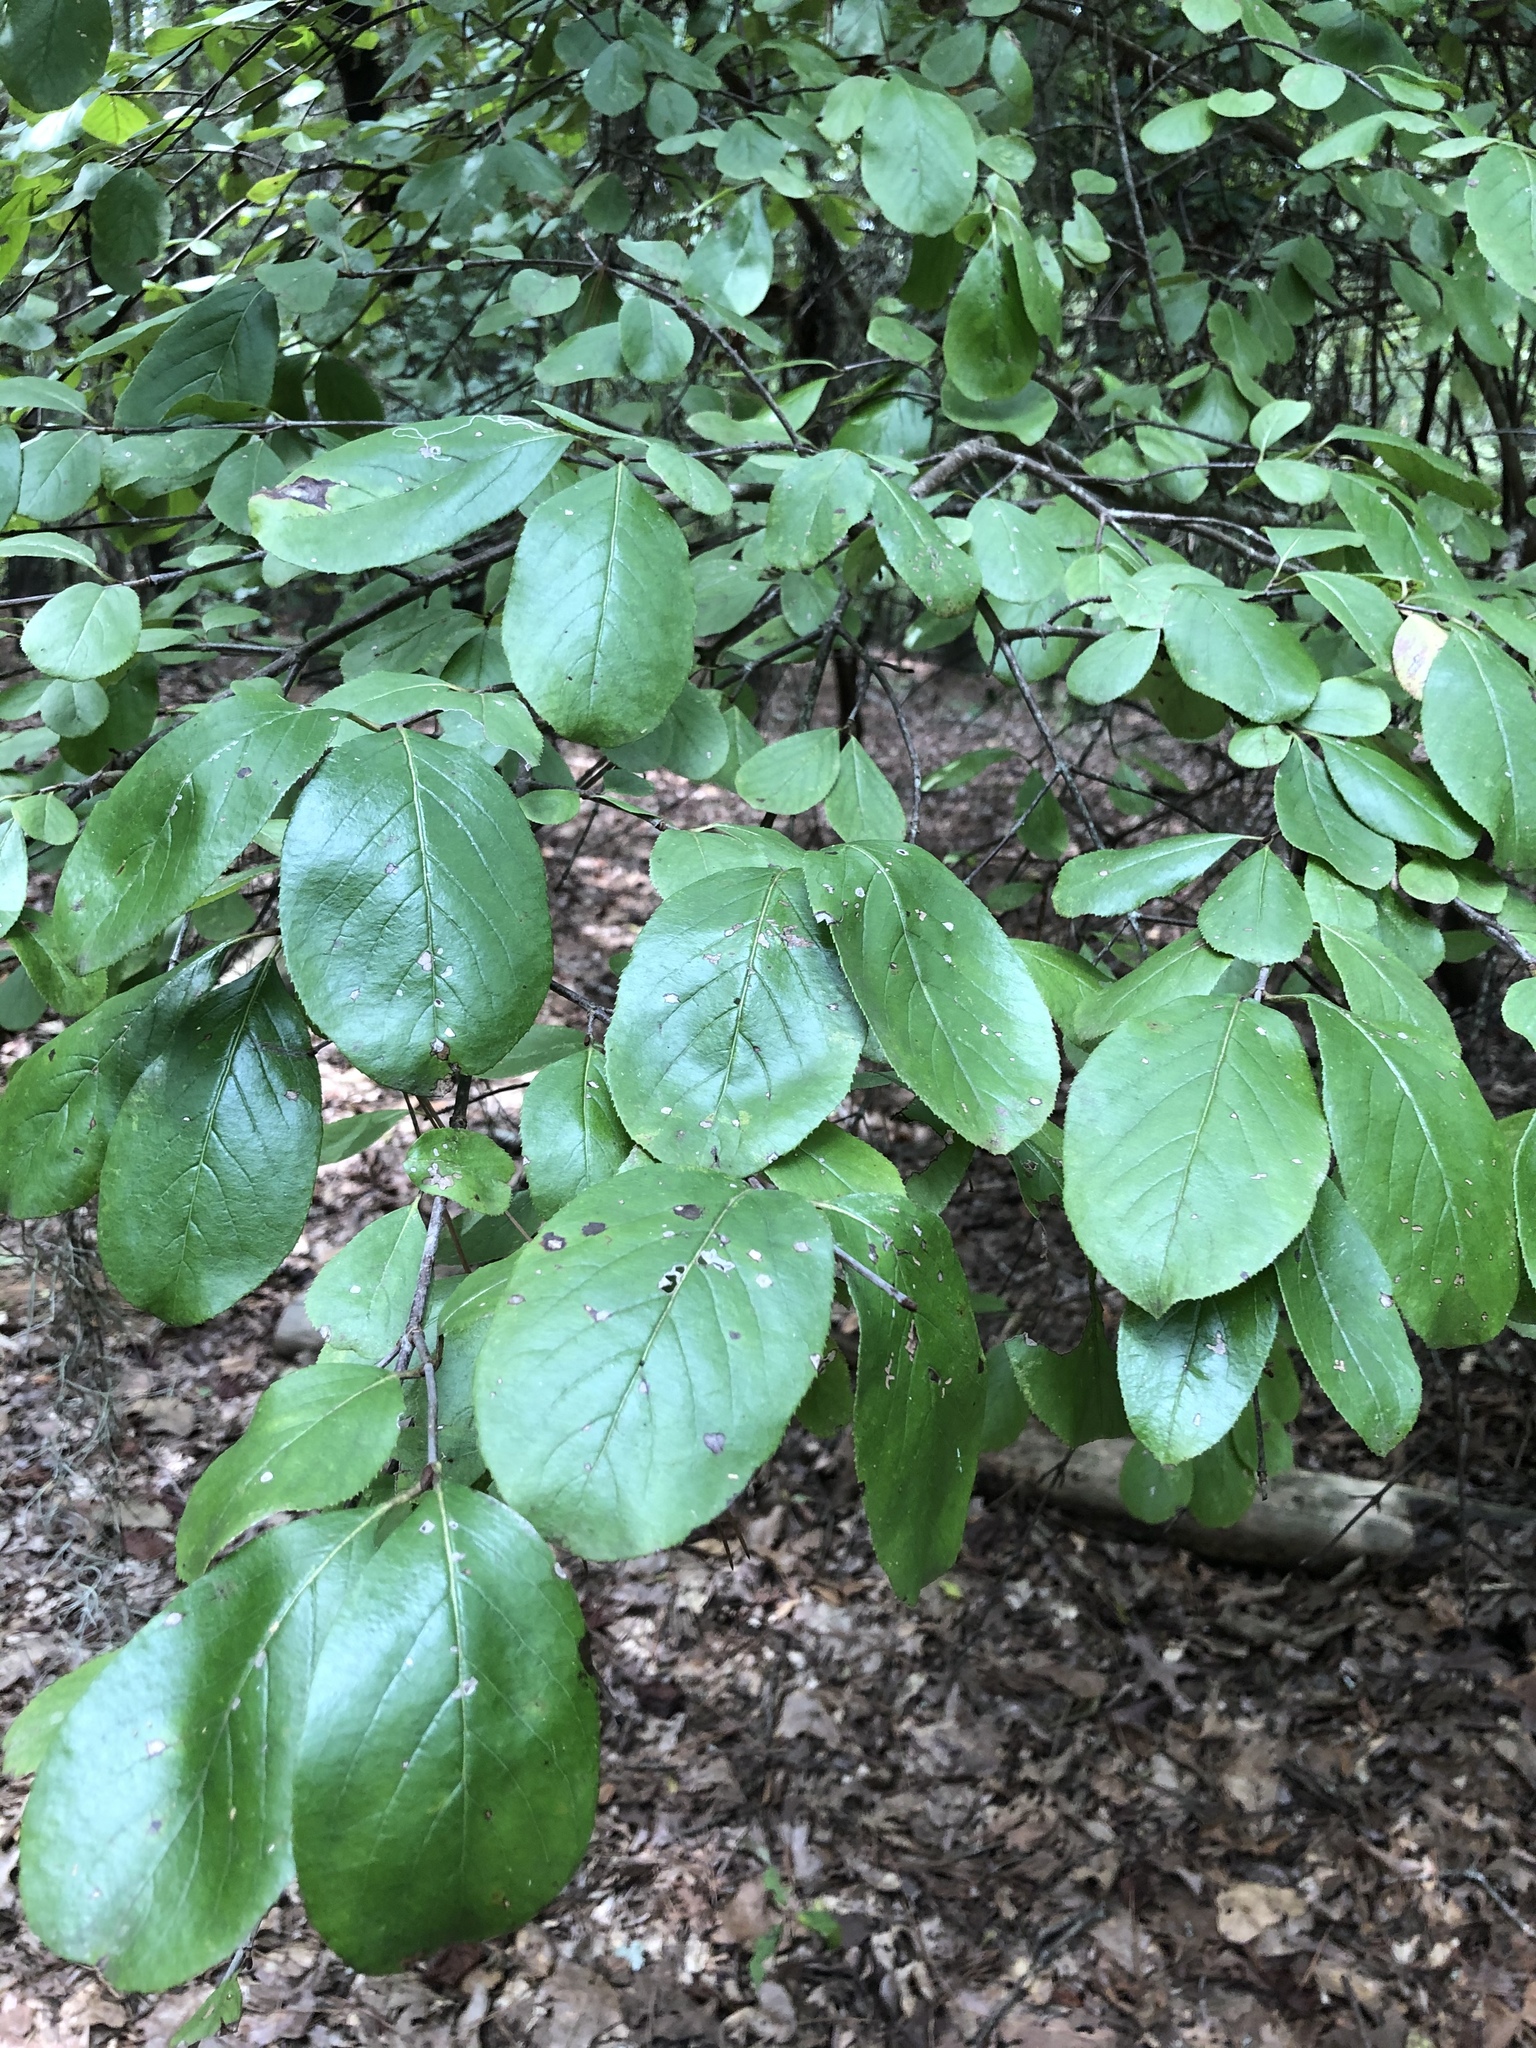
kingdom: Plantae
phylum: Tracheophyta
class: Magnoliopsida
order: Dipsacales
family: Viburnaceae
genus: Viburnum
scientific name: Viburnum rufidulum
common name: Blue haw
